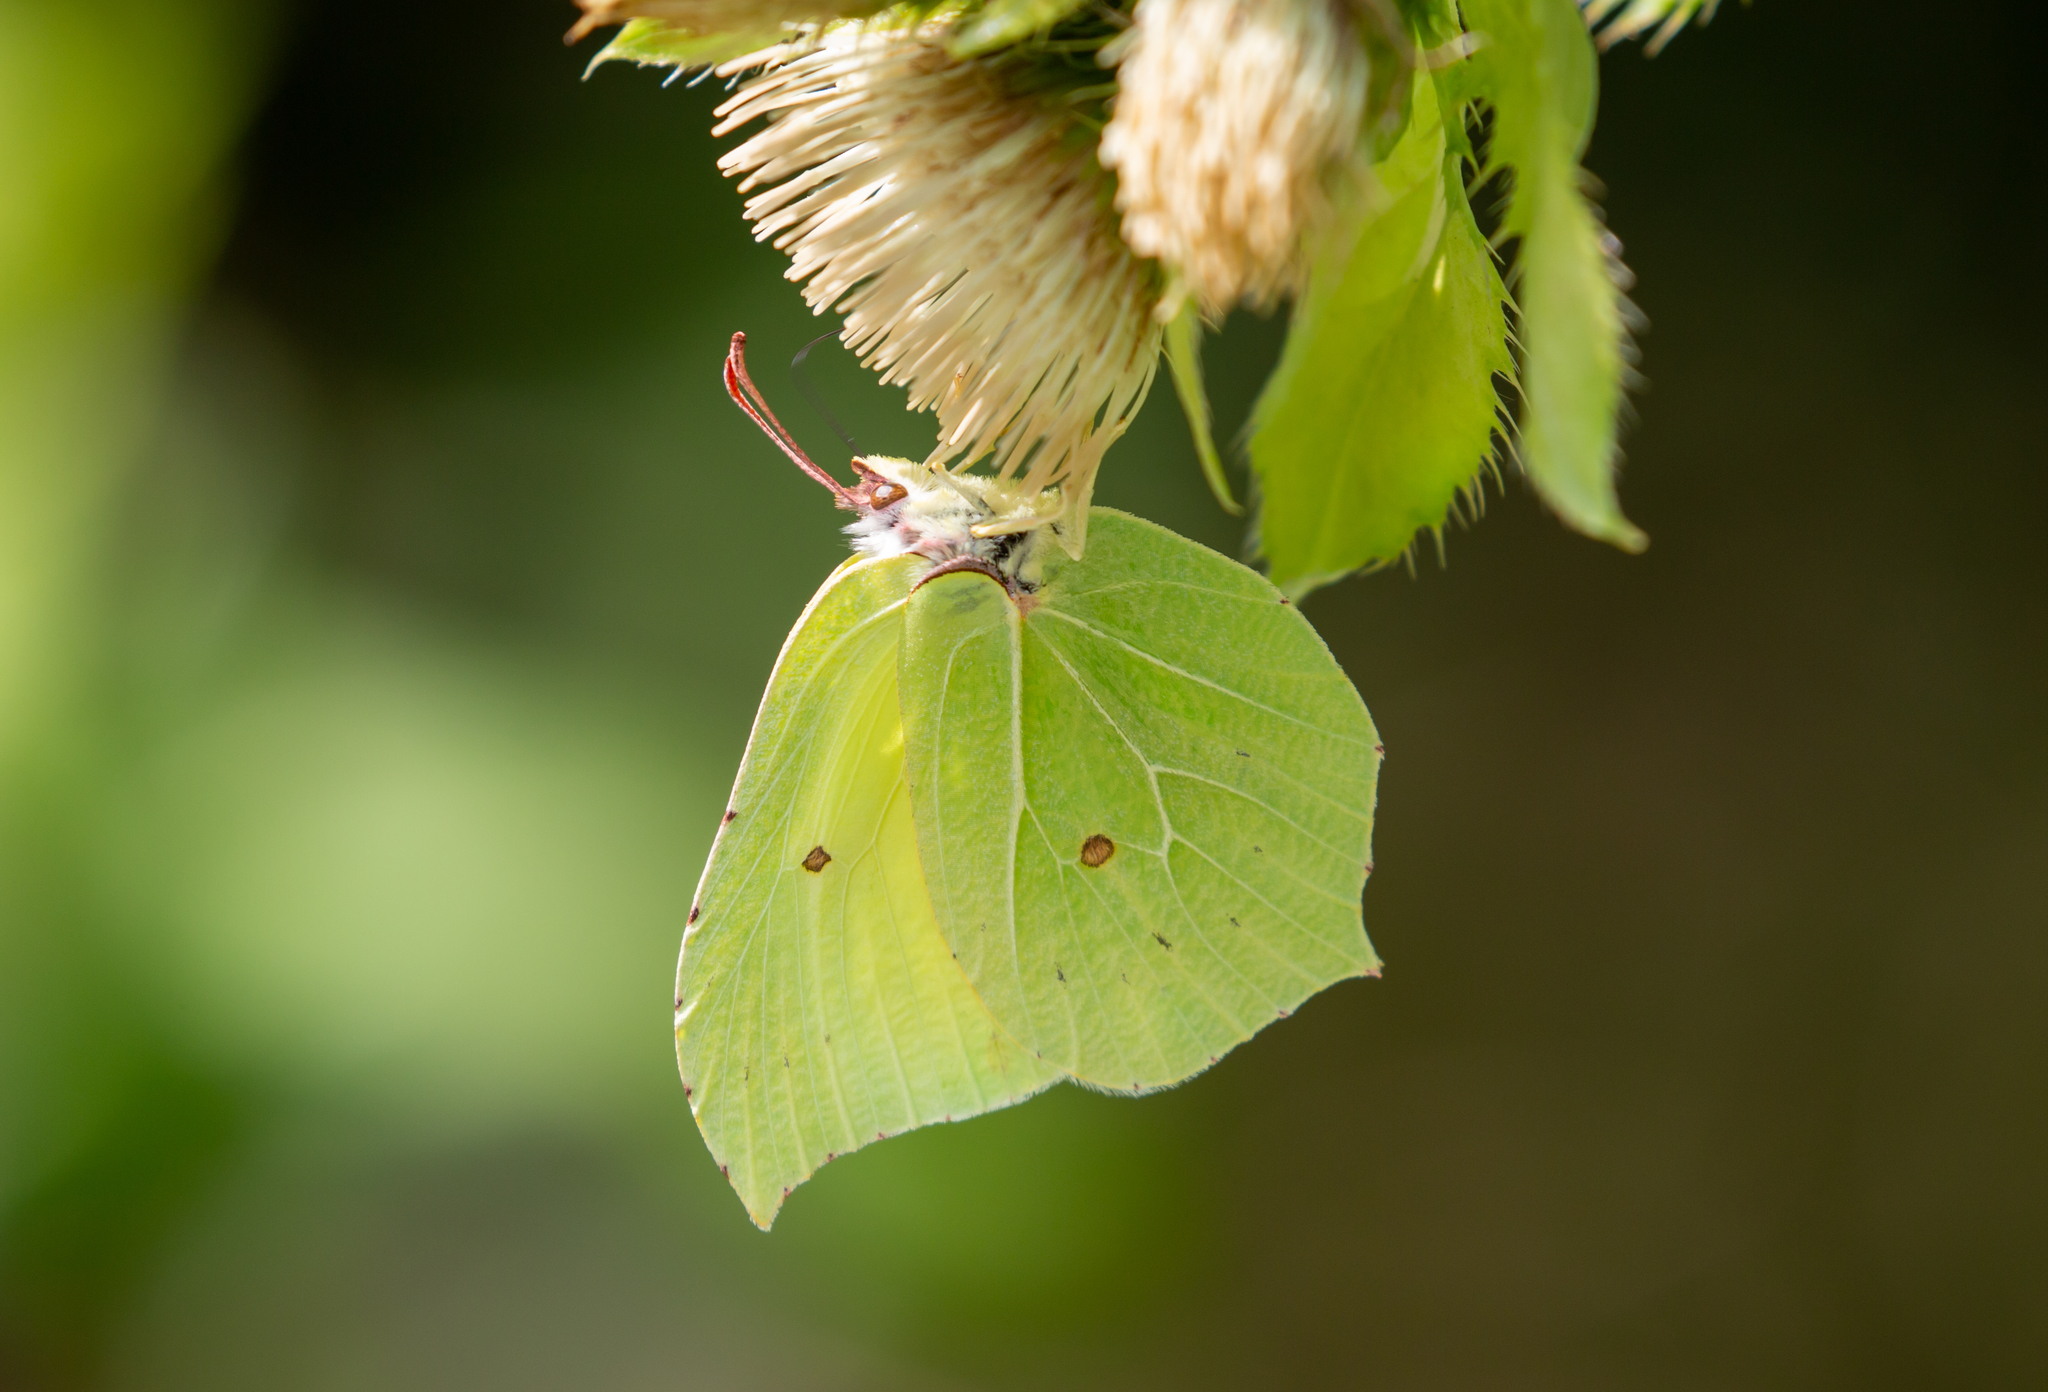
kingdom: Animalia
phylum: Arthropoda
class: Insecta
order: Lepidoptera
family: Pieridae
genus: Gonepteryx
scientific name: Gonepteryx rhamni
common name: Brimstone
